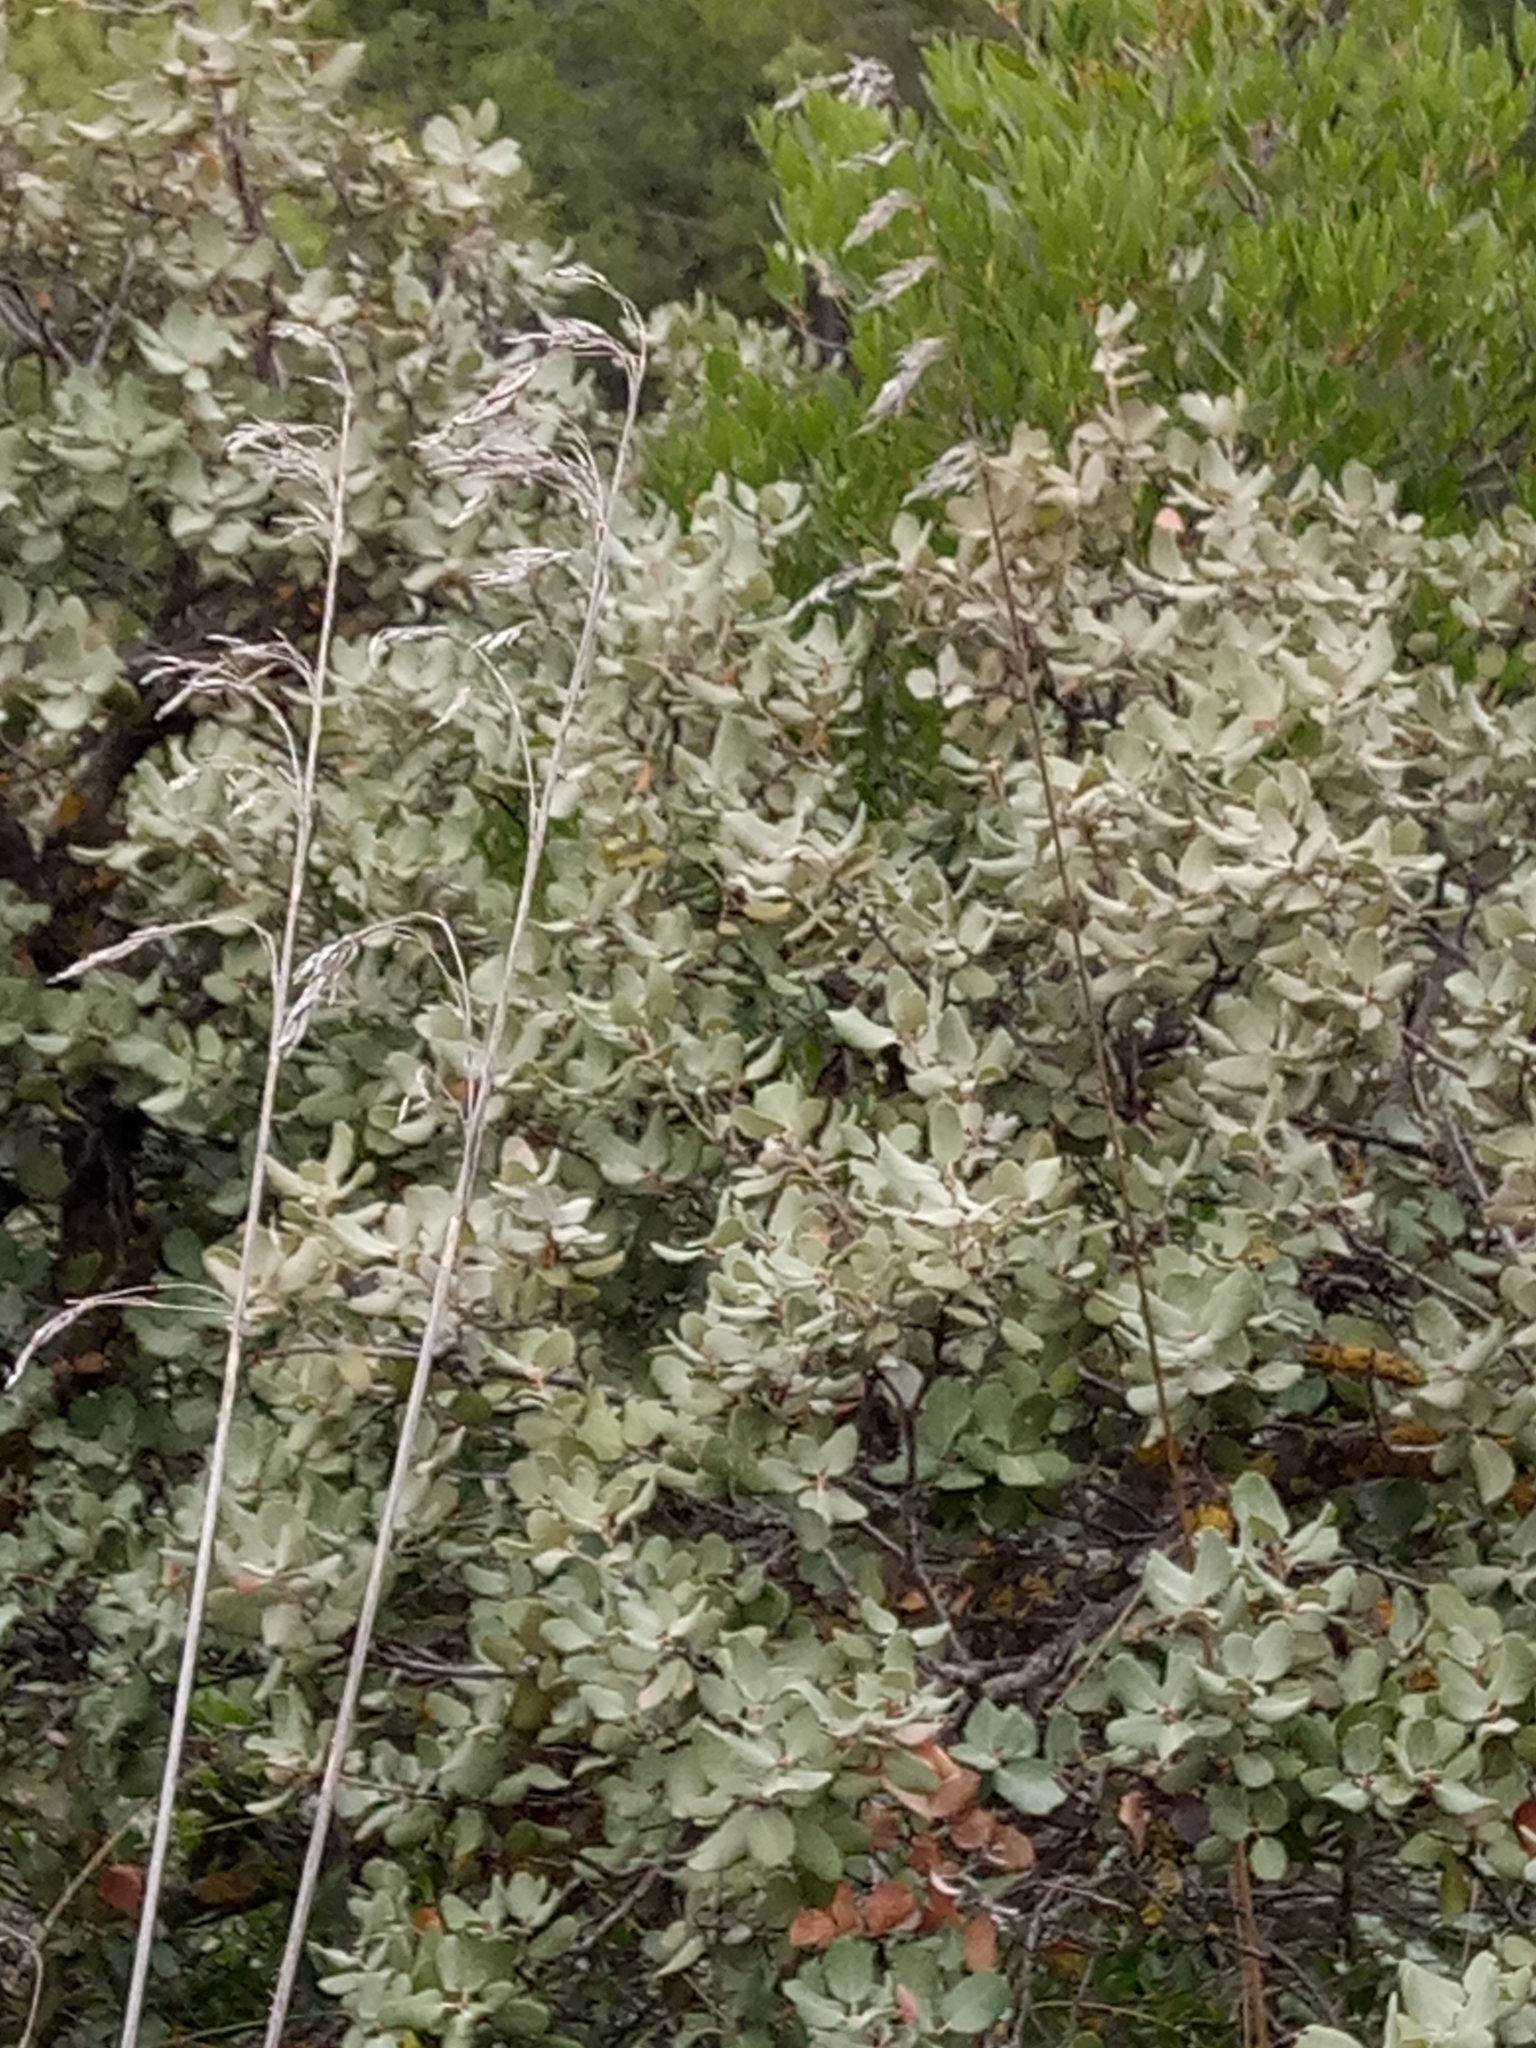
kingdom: Plantae
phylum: Tracheophyta
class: Magnoliopsida
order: Fagales
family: Fagaceae
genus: Quercus
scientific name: Quercus rotundifolia
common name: Holm oak
